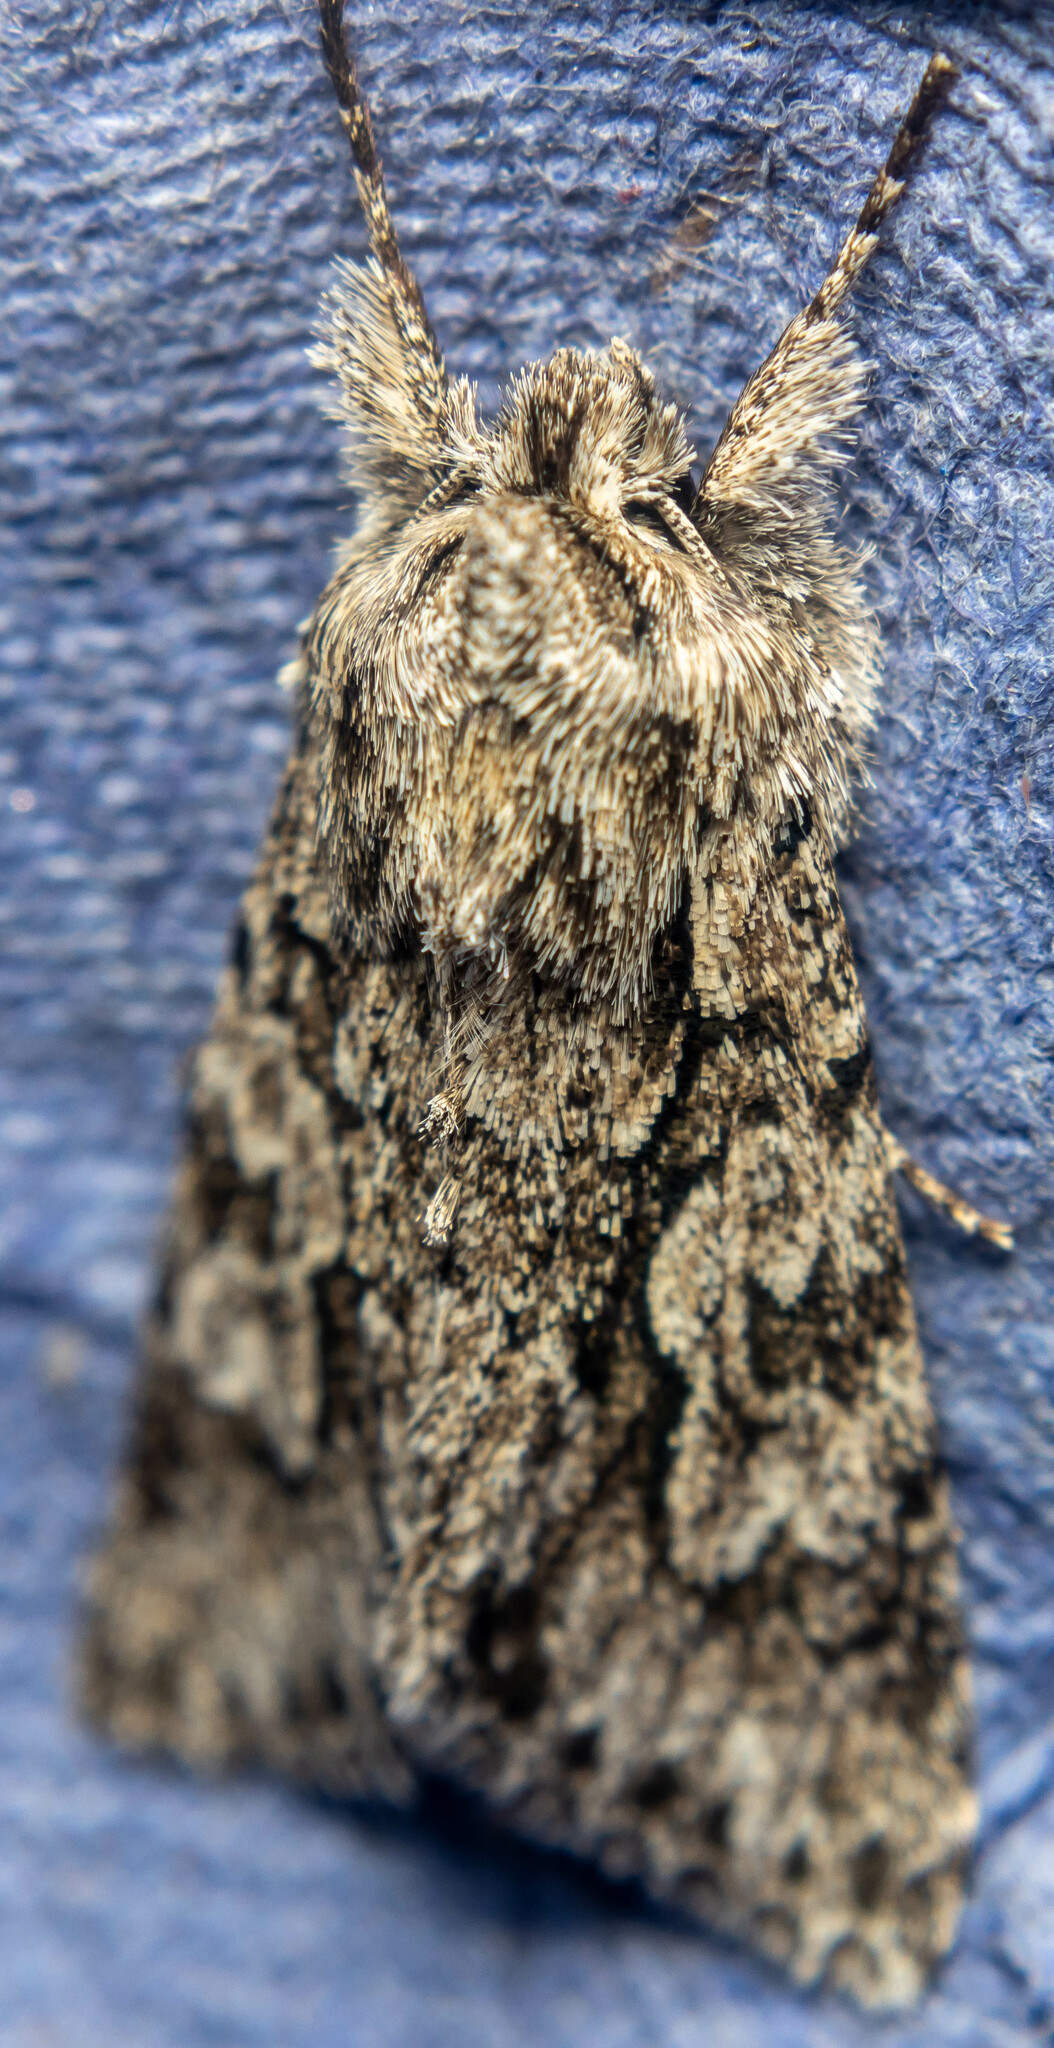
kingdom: Animalia
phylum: Arthropoda
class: Insecta
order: Lepidoptera
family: Noctuidae
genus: Xylocampa
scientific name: Xylocampa areola
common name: Early grey
